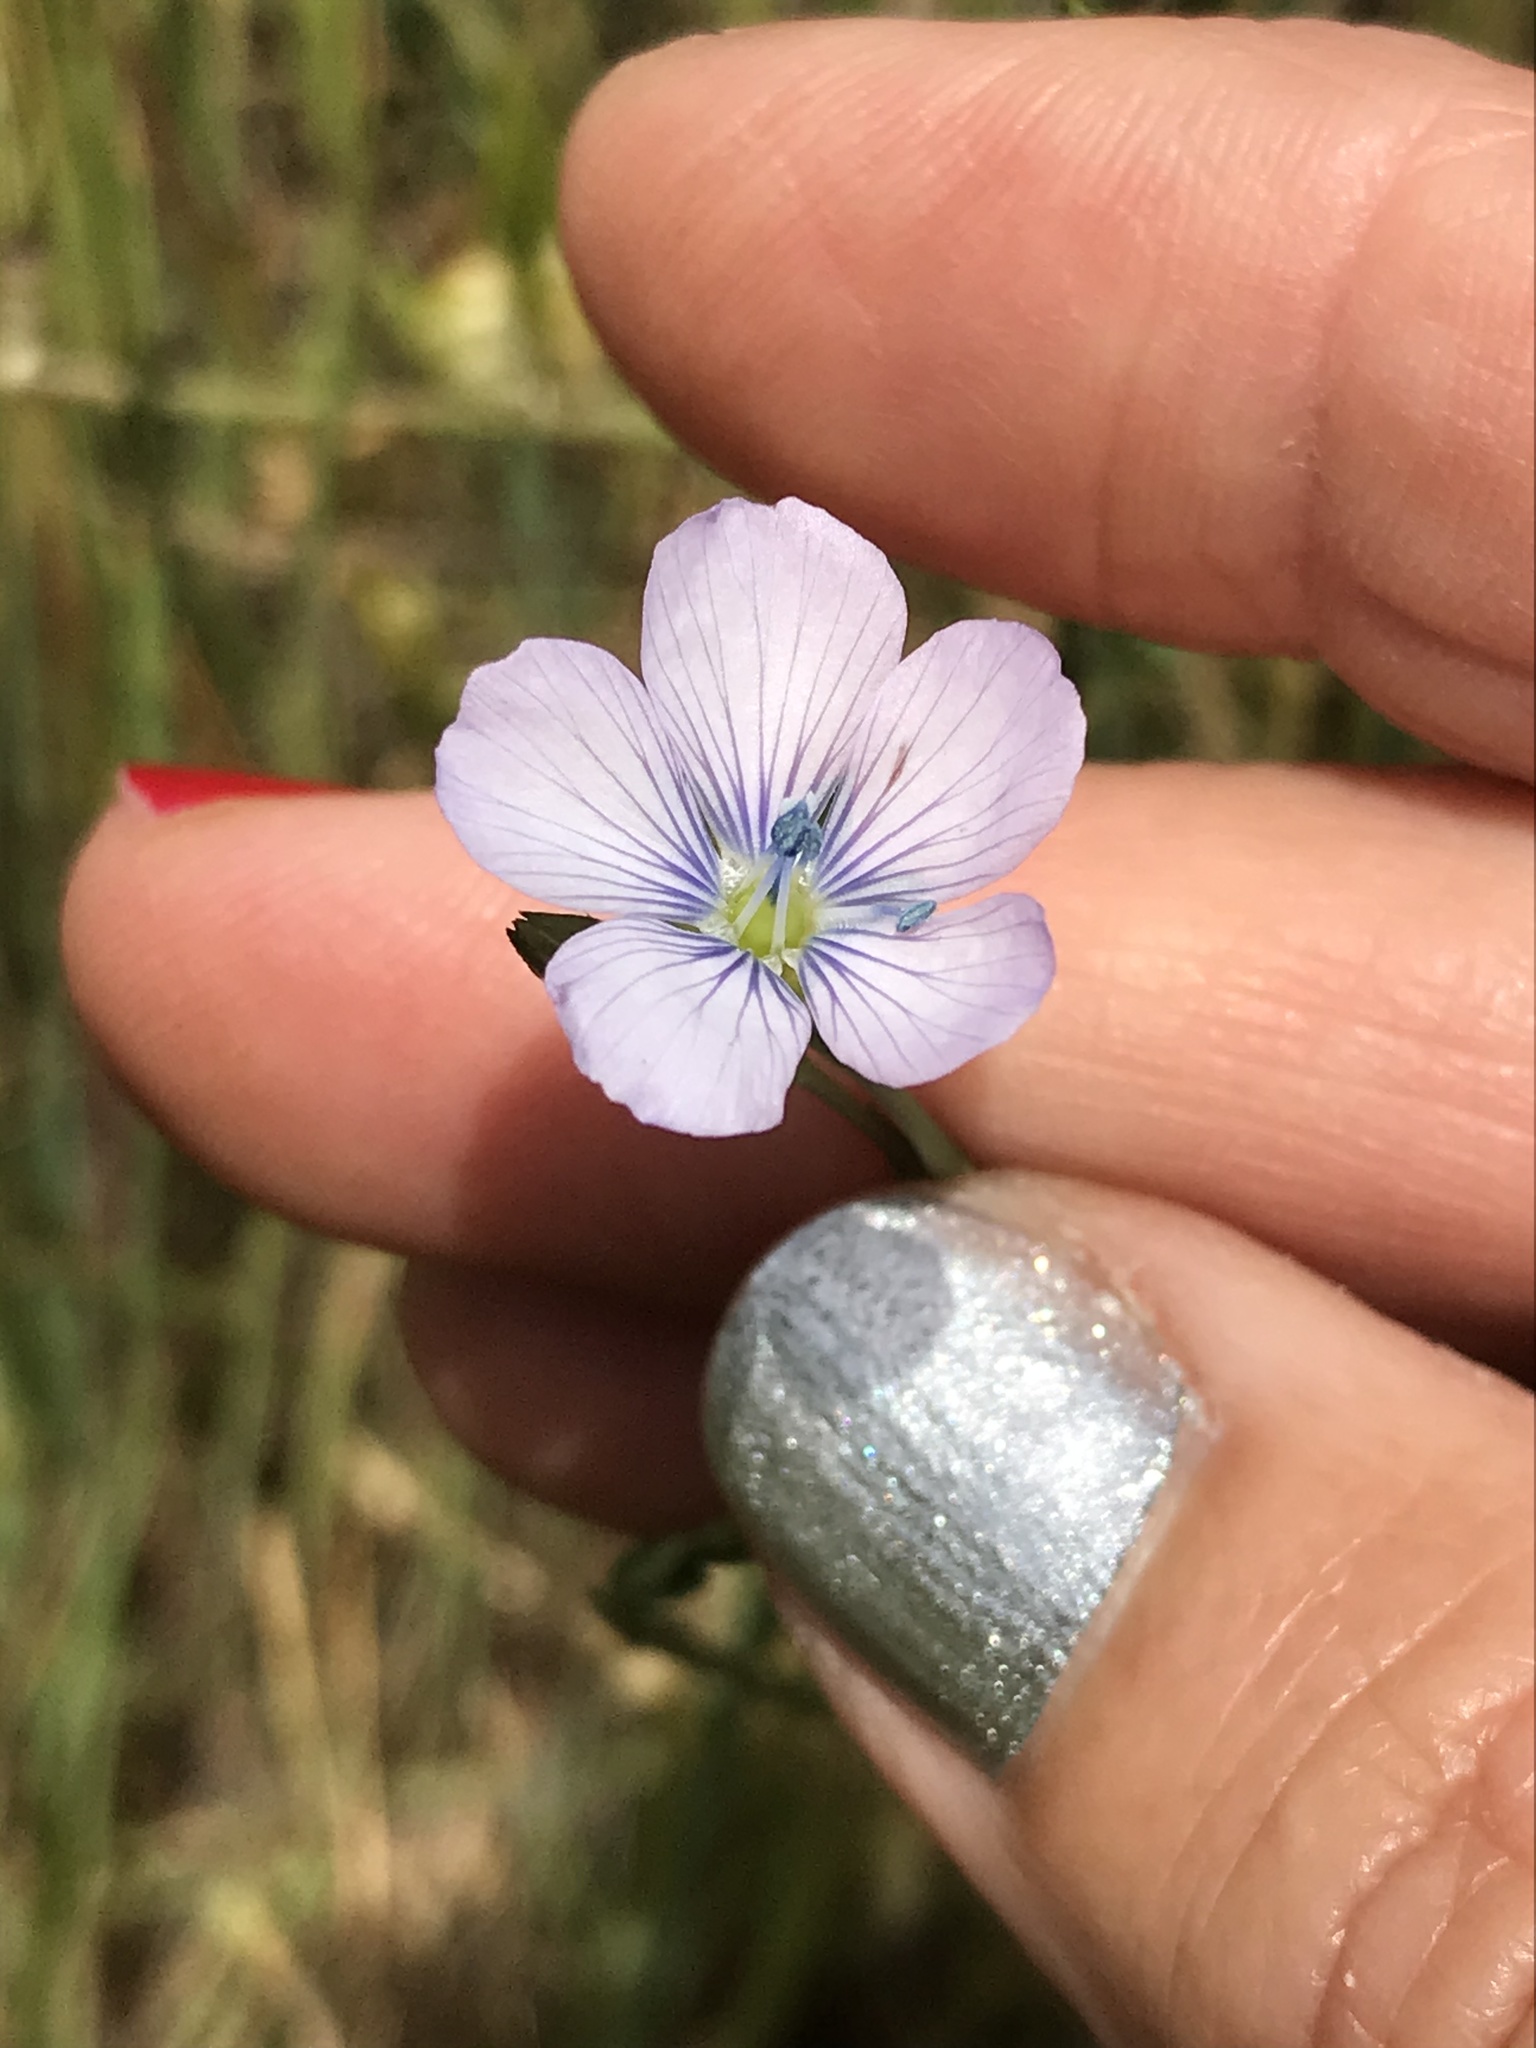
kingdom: Plantae
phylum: Tracheophyta
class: Magnoliopsida
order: Malpighiales
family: Linaceae
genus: Linum
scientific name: Linum bienne
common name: Pale flax
